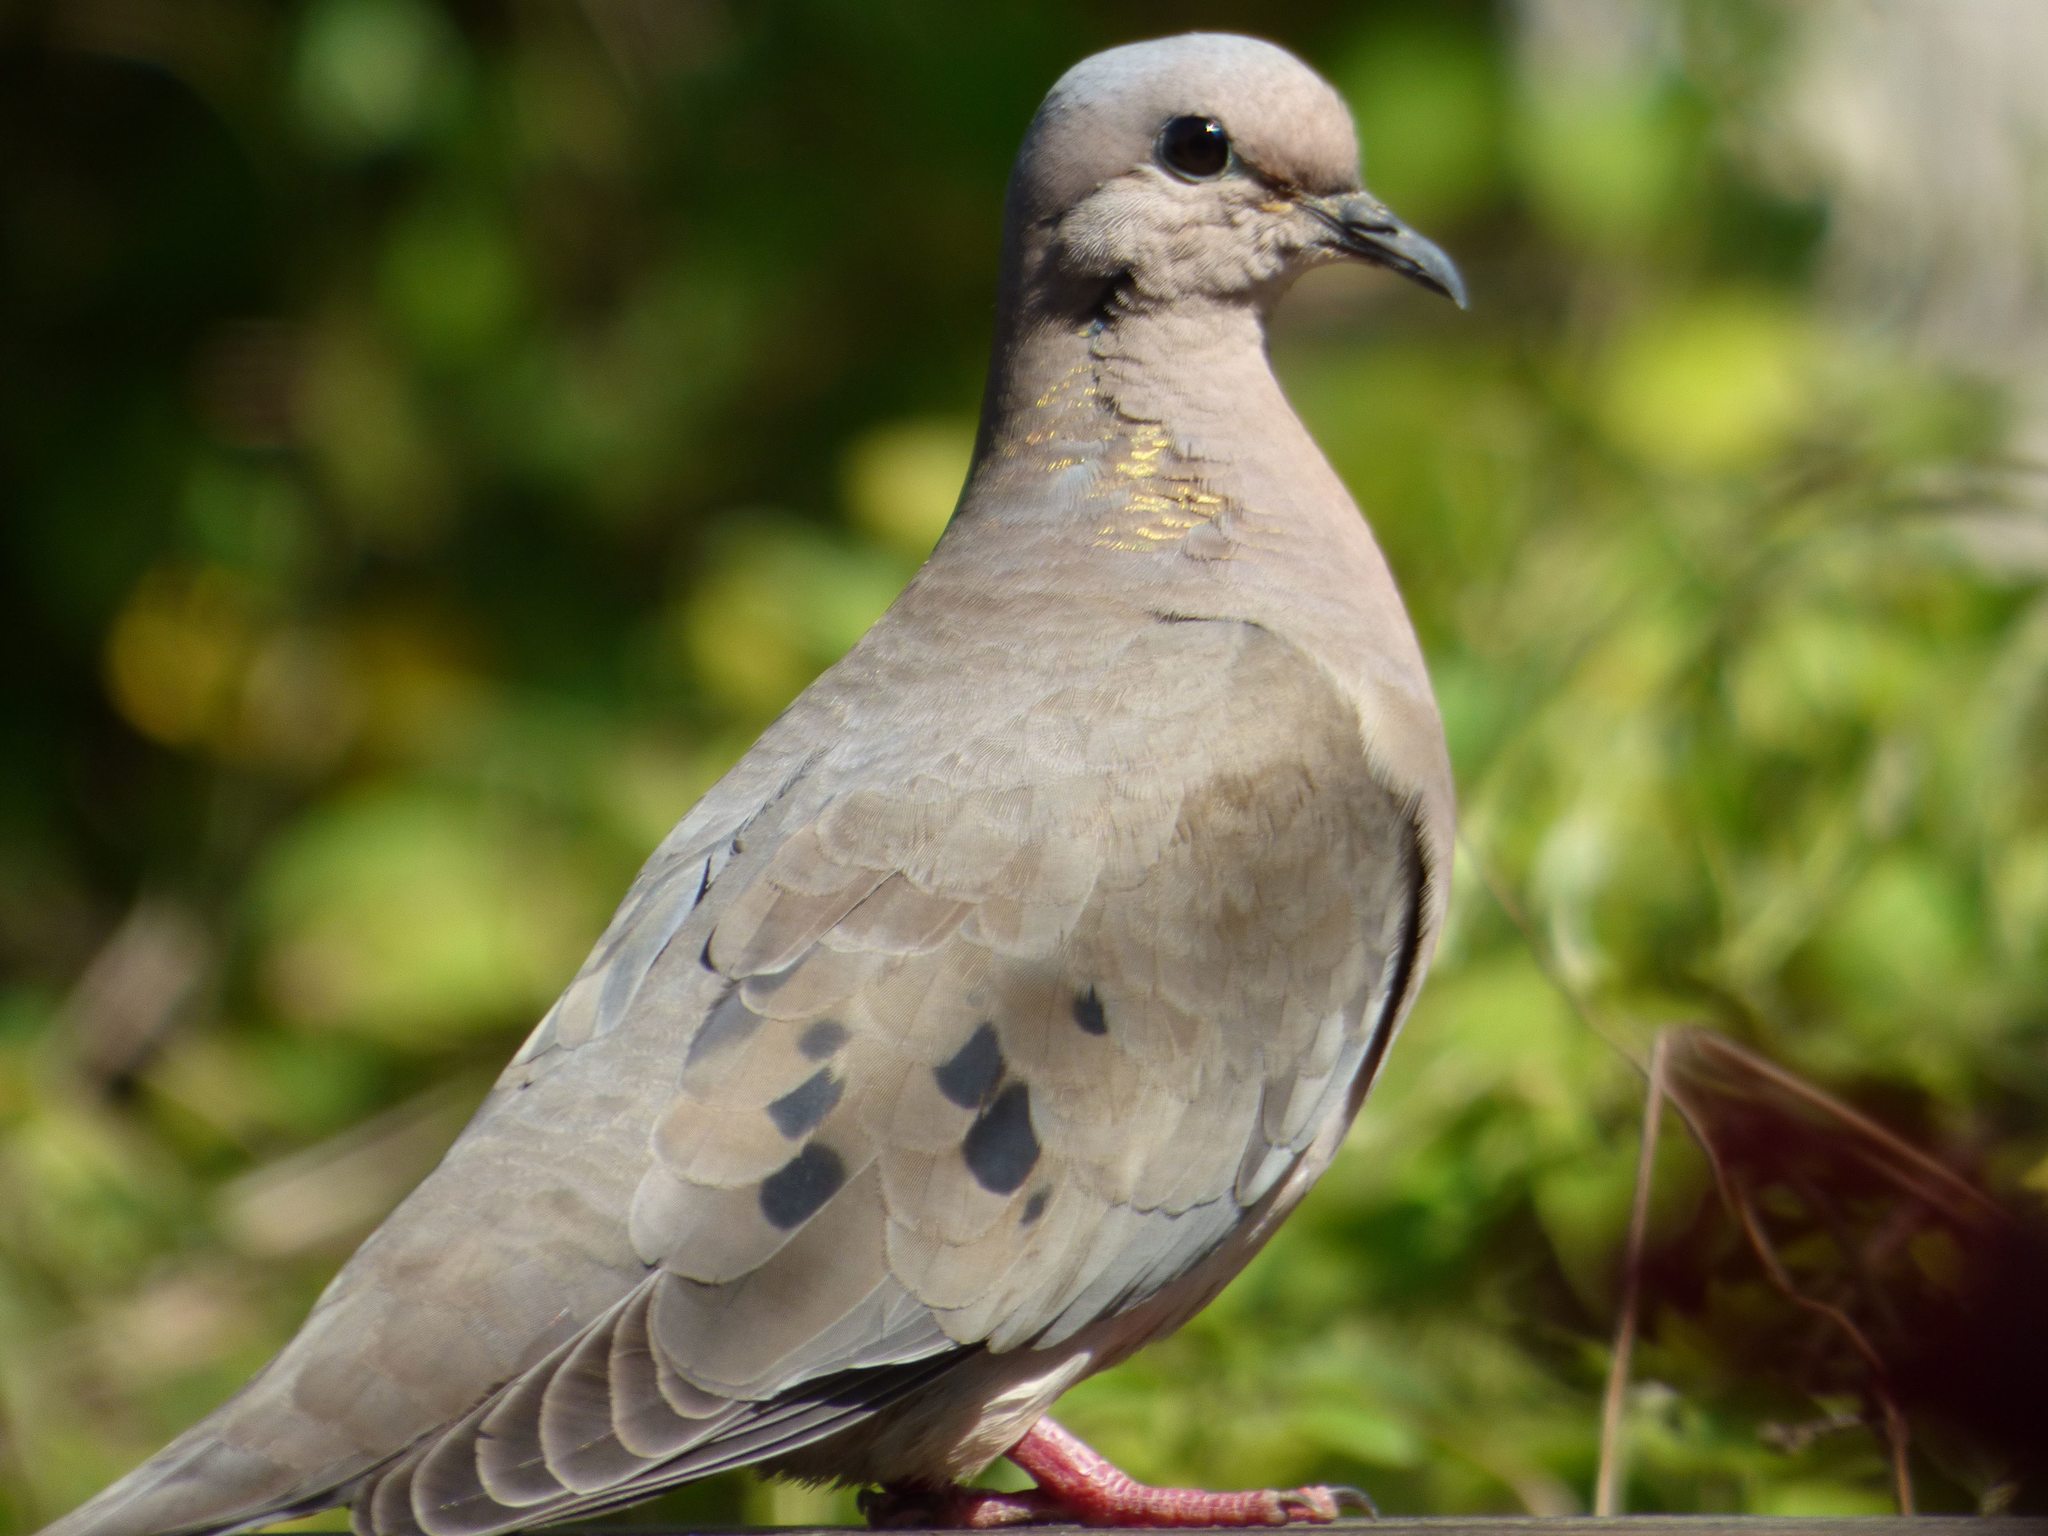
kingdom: Animalia
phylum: Chordata
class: Aves
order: Columbiformes
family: Columbidae
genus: Zenaida
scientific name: Zenaida auriculata
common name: Eared dove
